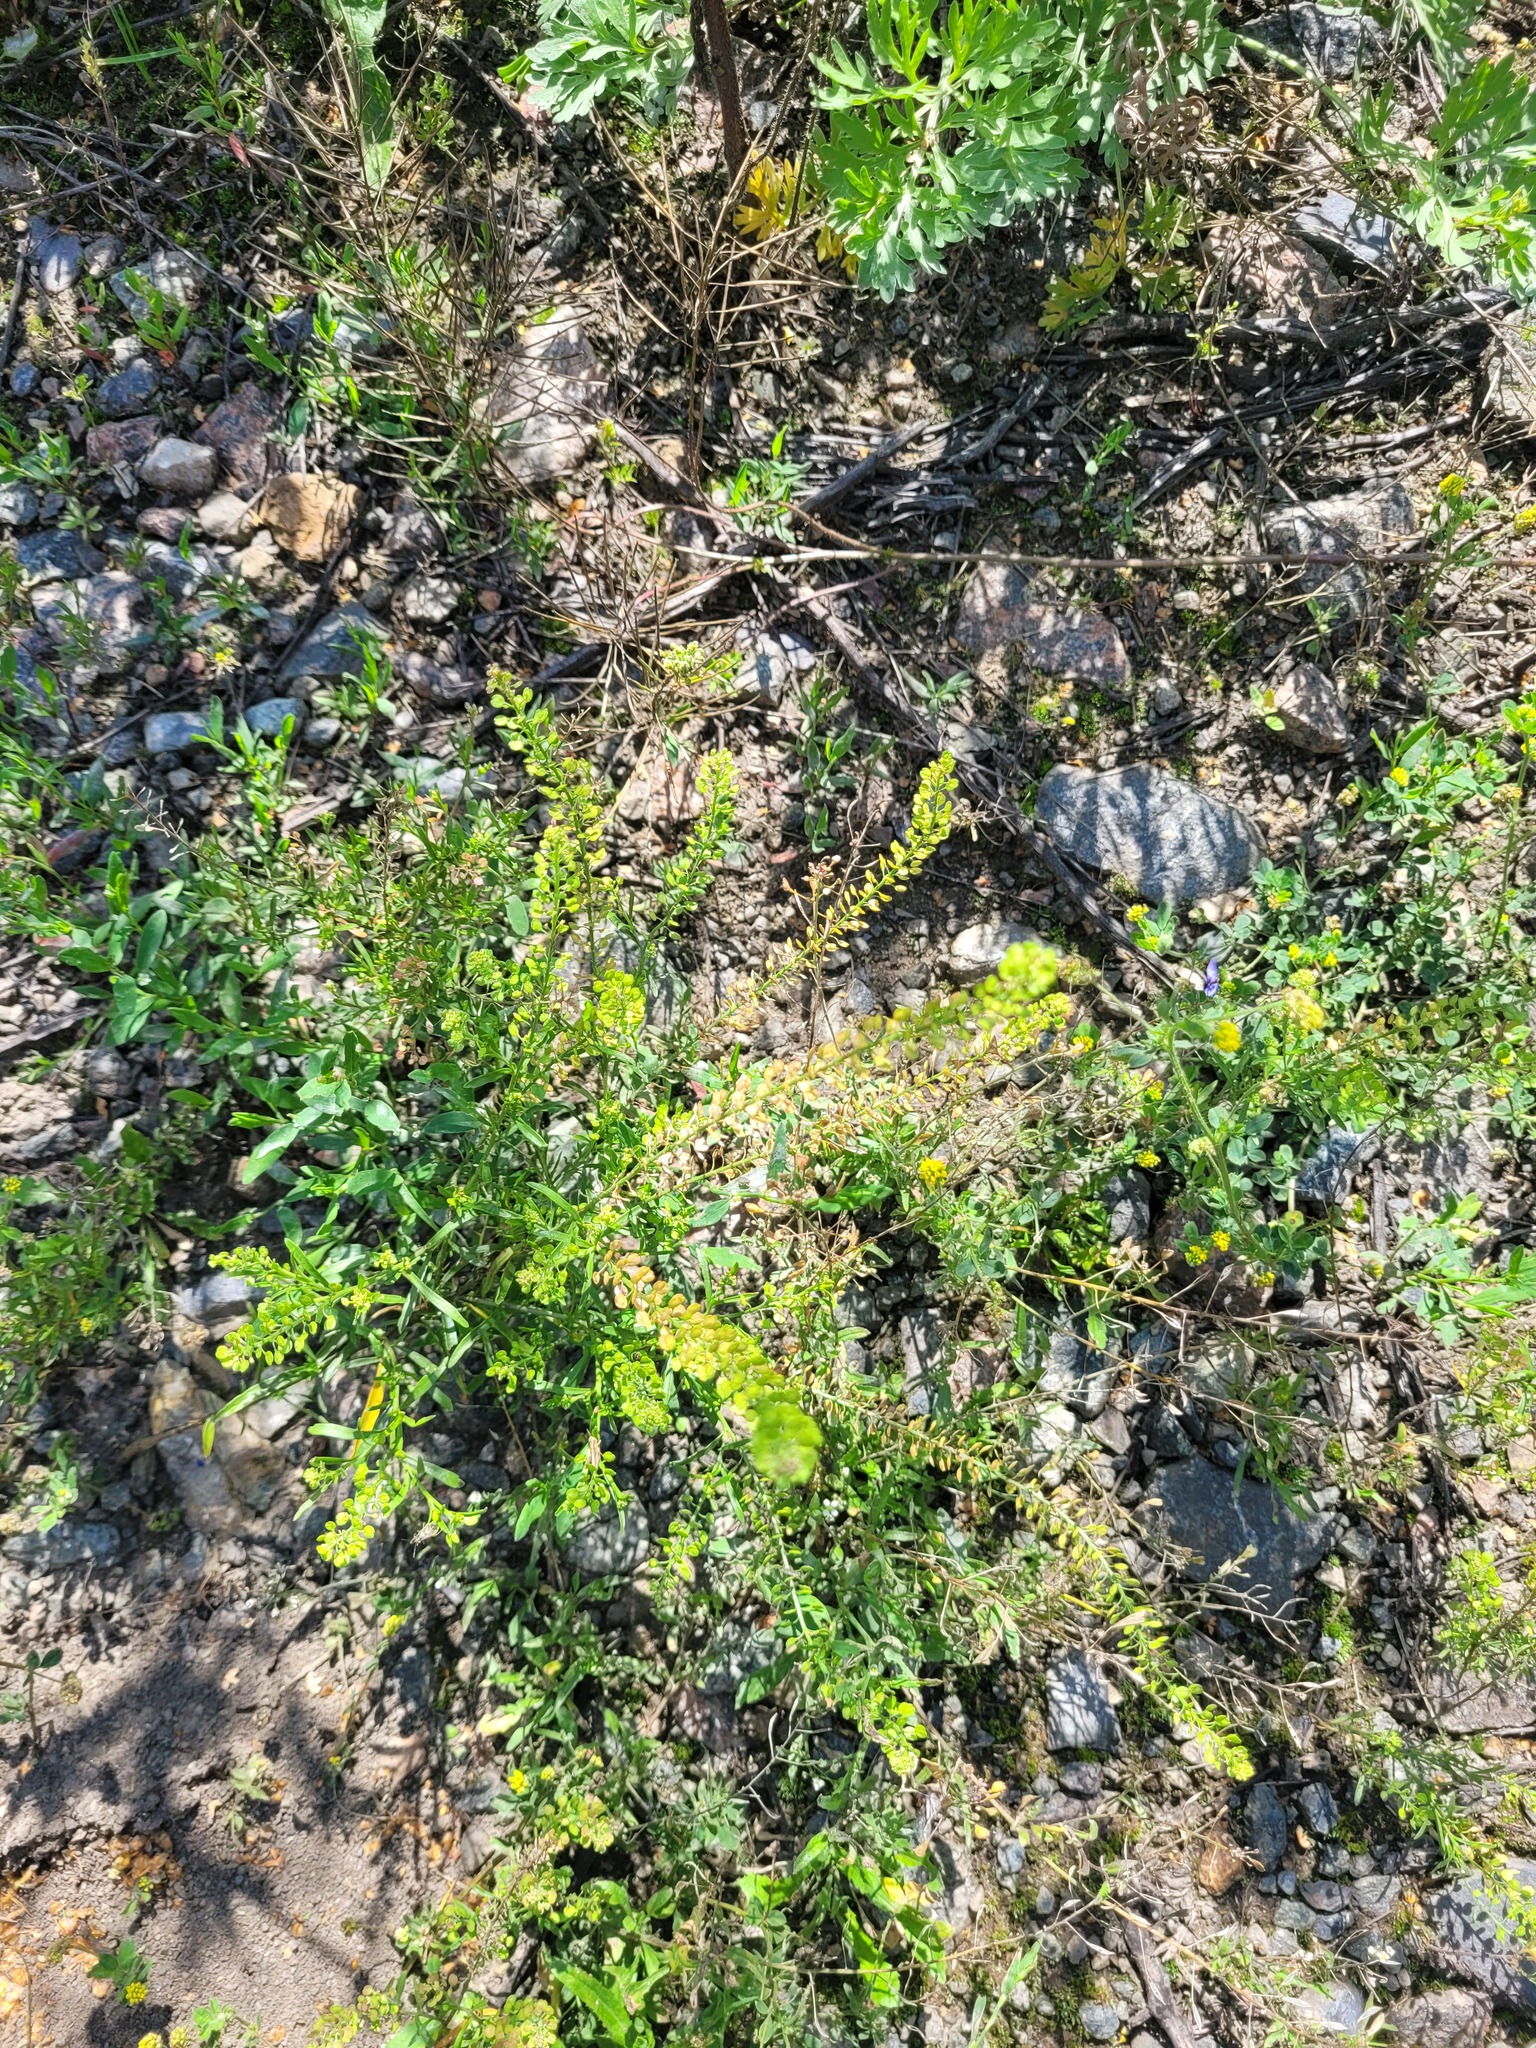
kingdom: Plantae
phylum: Tracheophyta
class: Magnoliopsida
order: Brassicales
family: Brassicaceae
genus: Lepidium
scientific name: Lepidium densiflorum
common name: Miner's pepperwort
